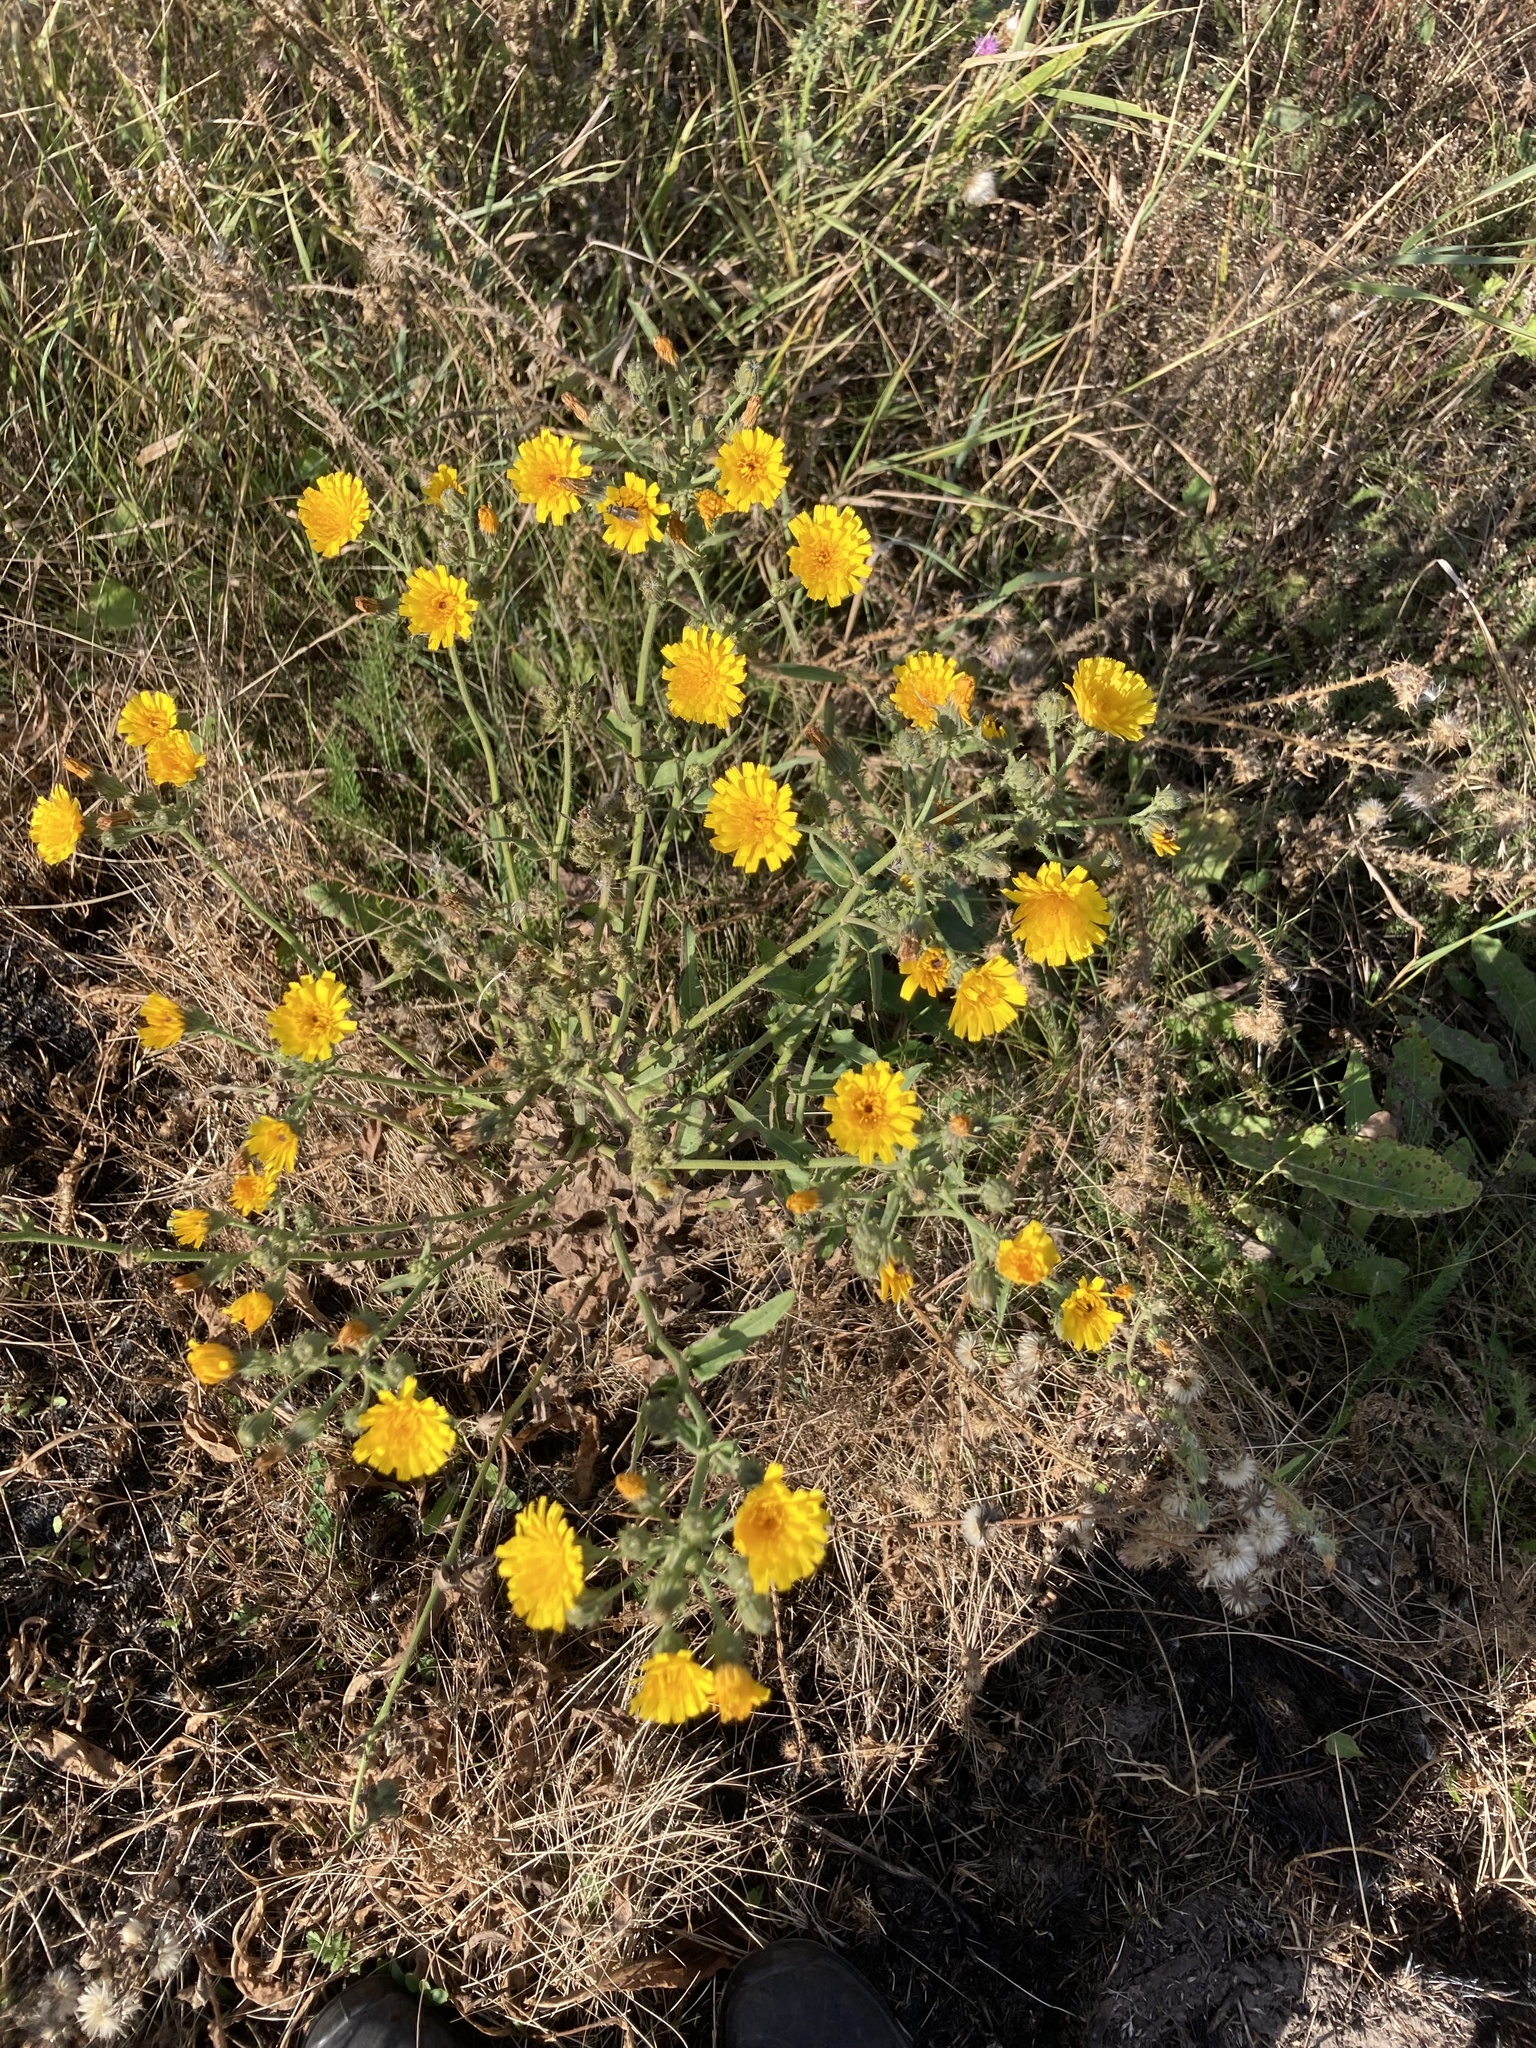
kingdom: Plantae
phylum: Tracheophyta
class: Magnoliopsida
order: Asterales
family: Asteraceae
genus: Picris
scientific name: Picris hieracioides
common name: Hawkweed oxtongue
